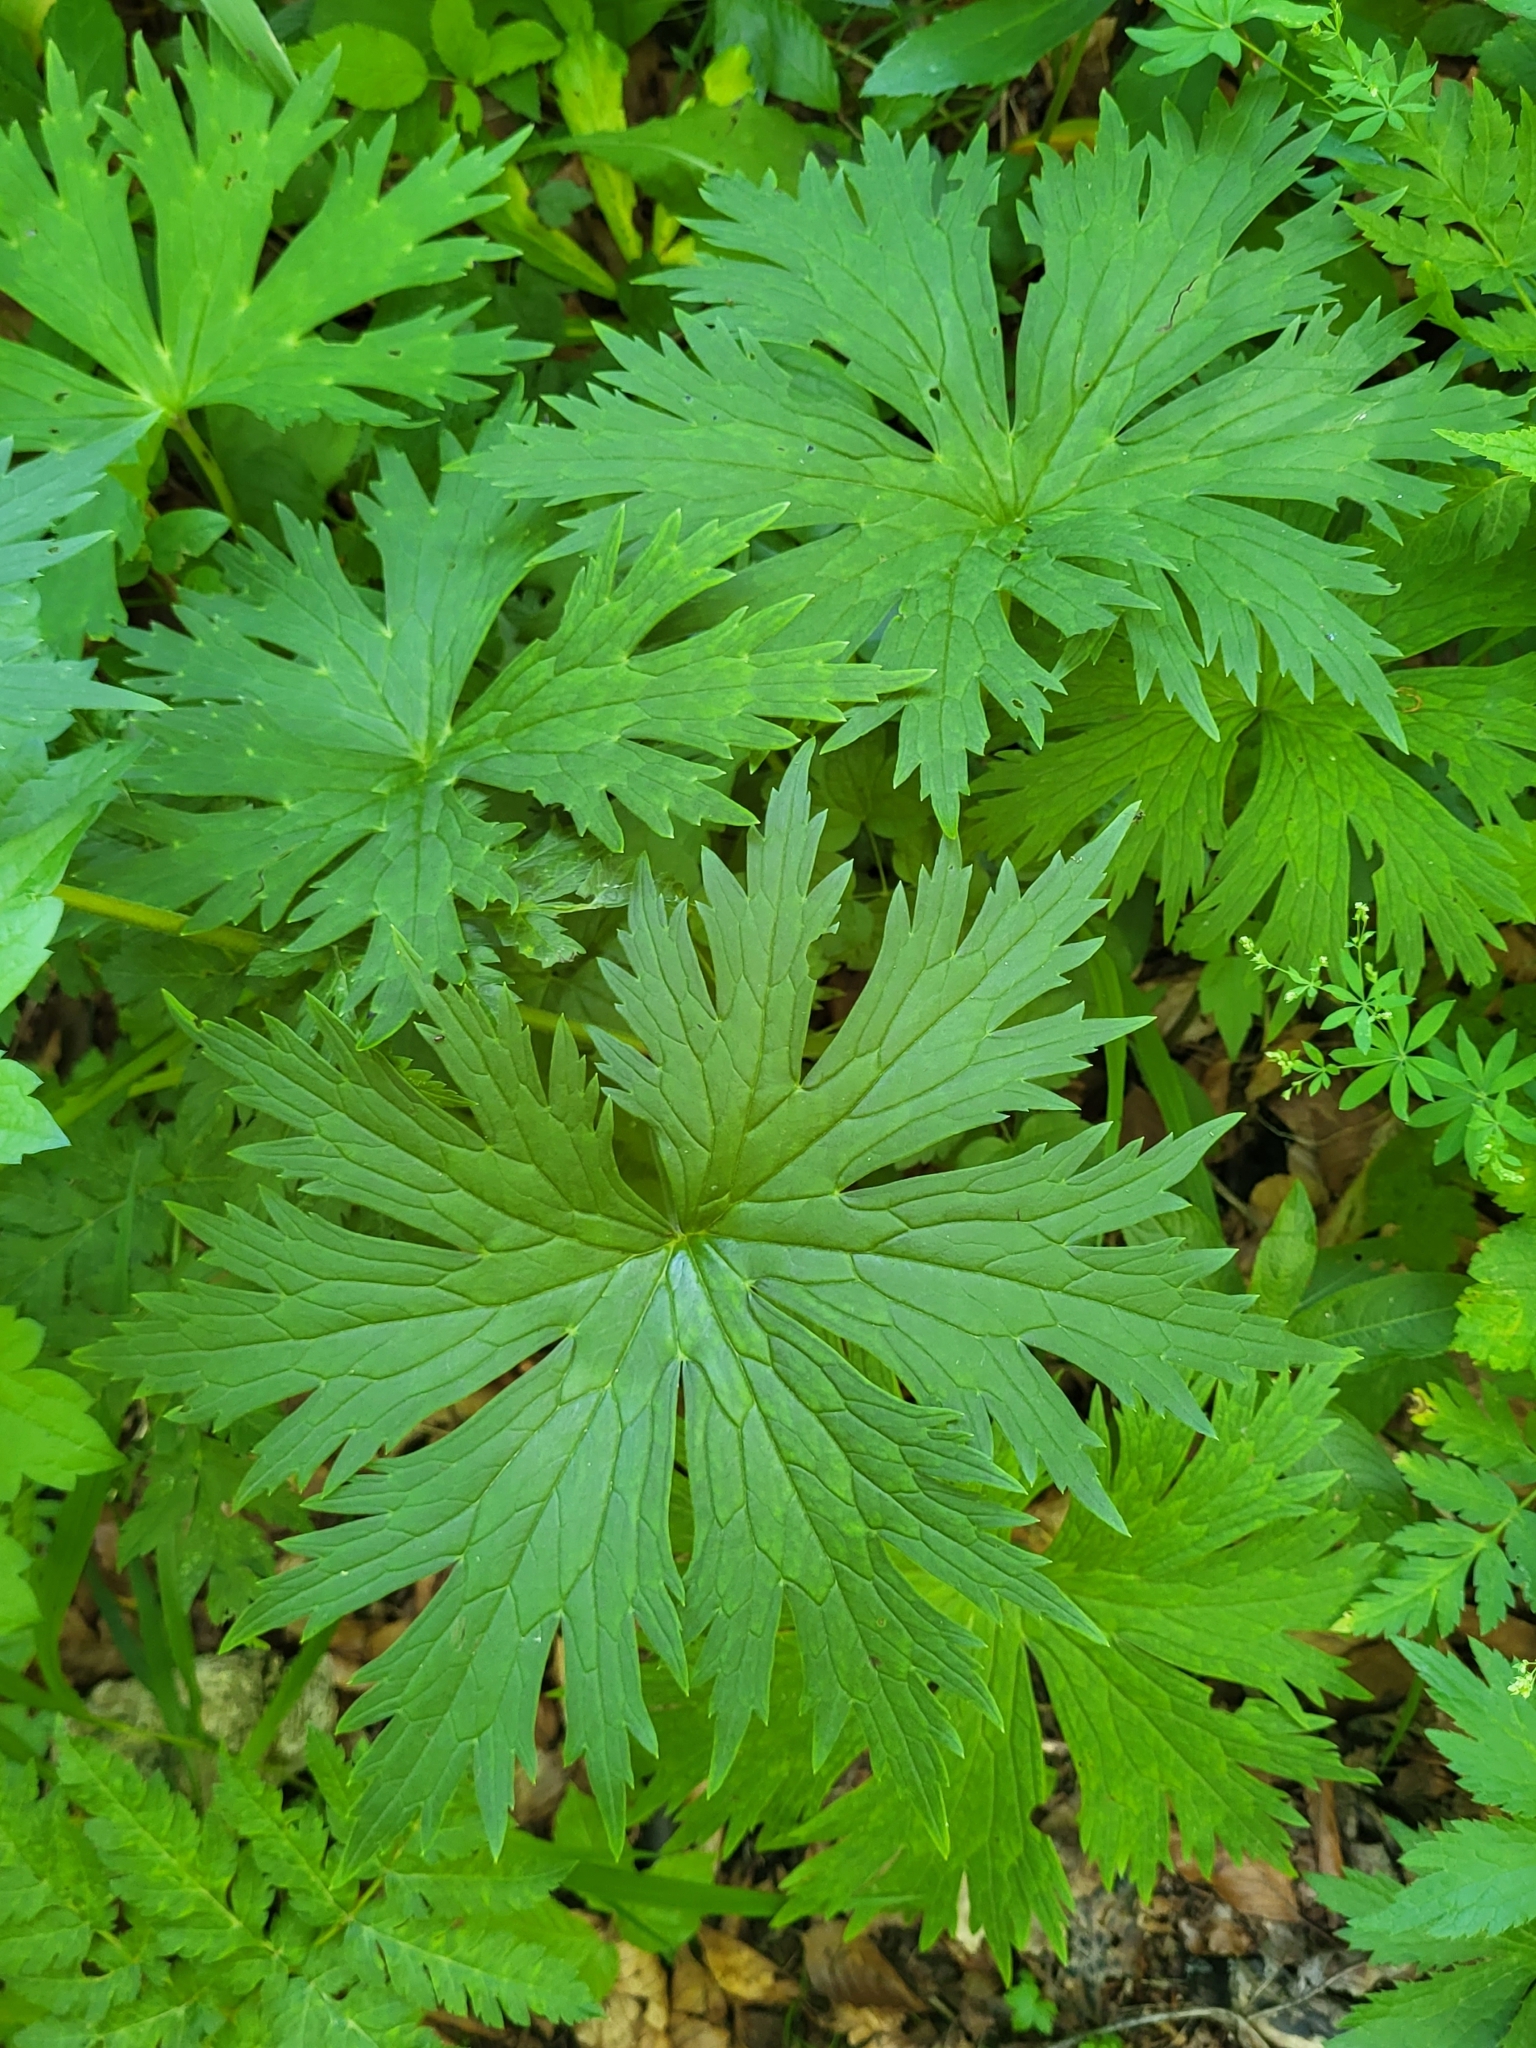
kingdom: Plantae
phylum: Tracheophyta
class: Magnoliopsida
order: Ranunculales
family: Ranunculaceae
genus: Aconitum
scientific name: Aconitum lycoctonum
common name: Wolf's-bane
